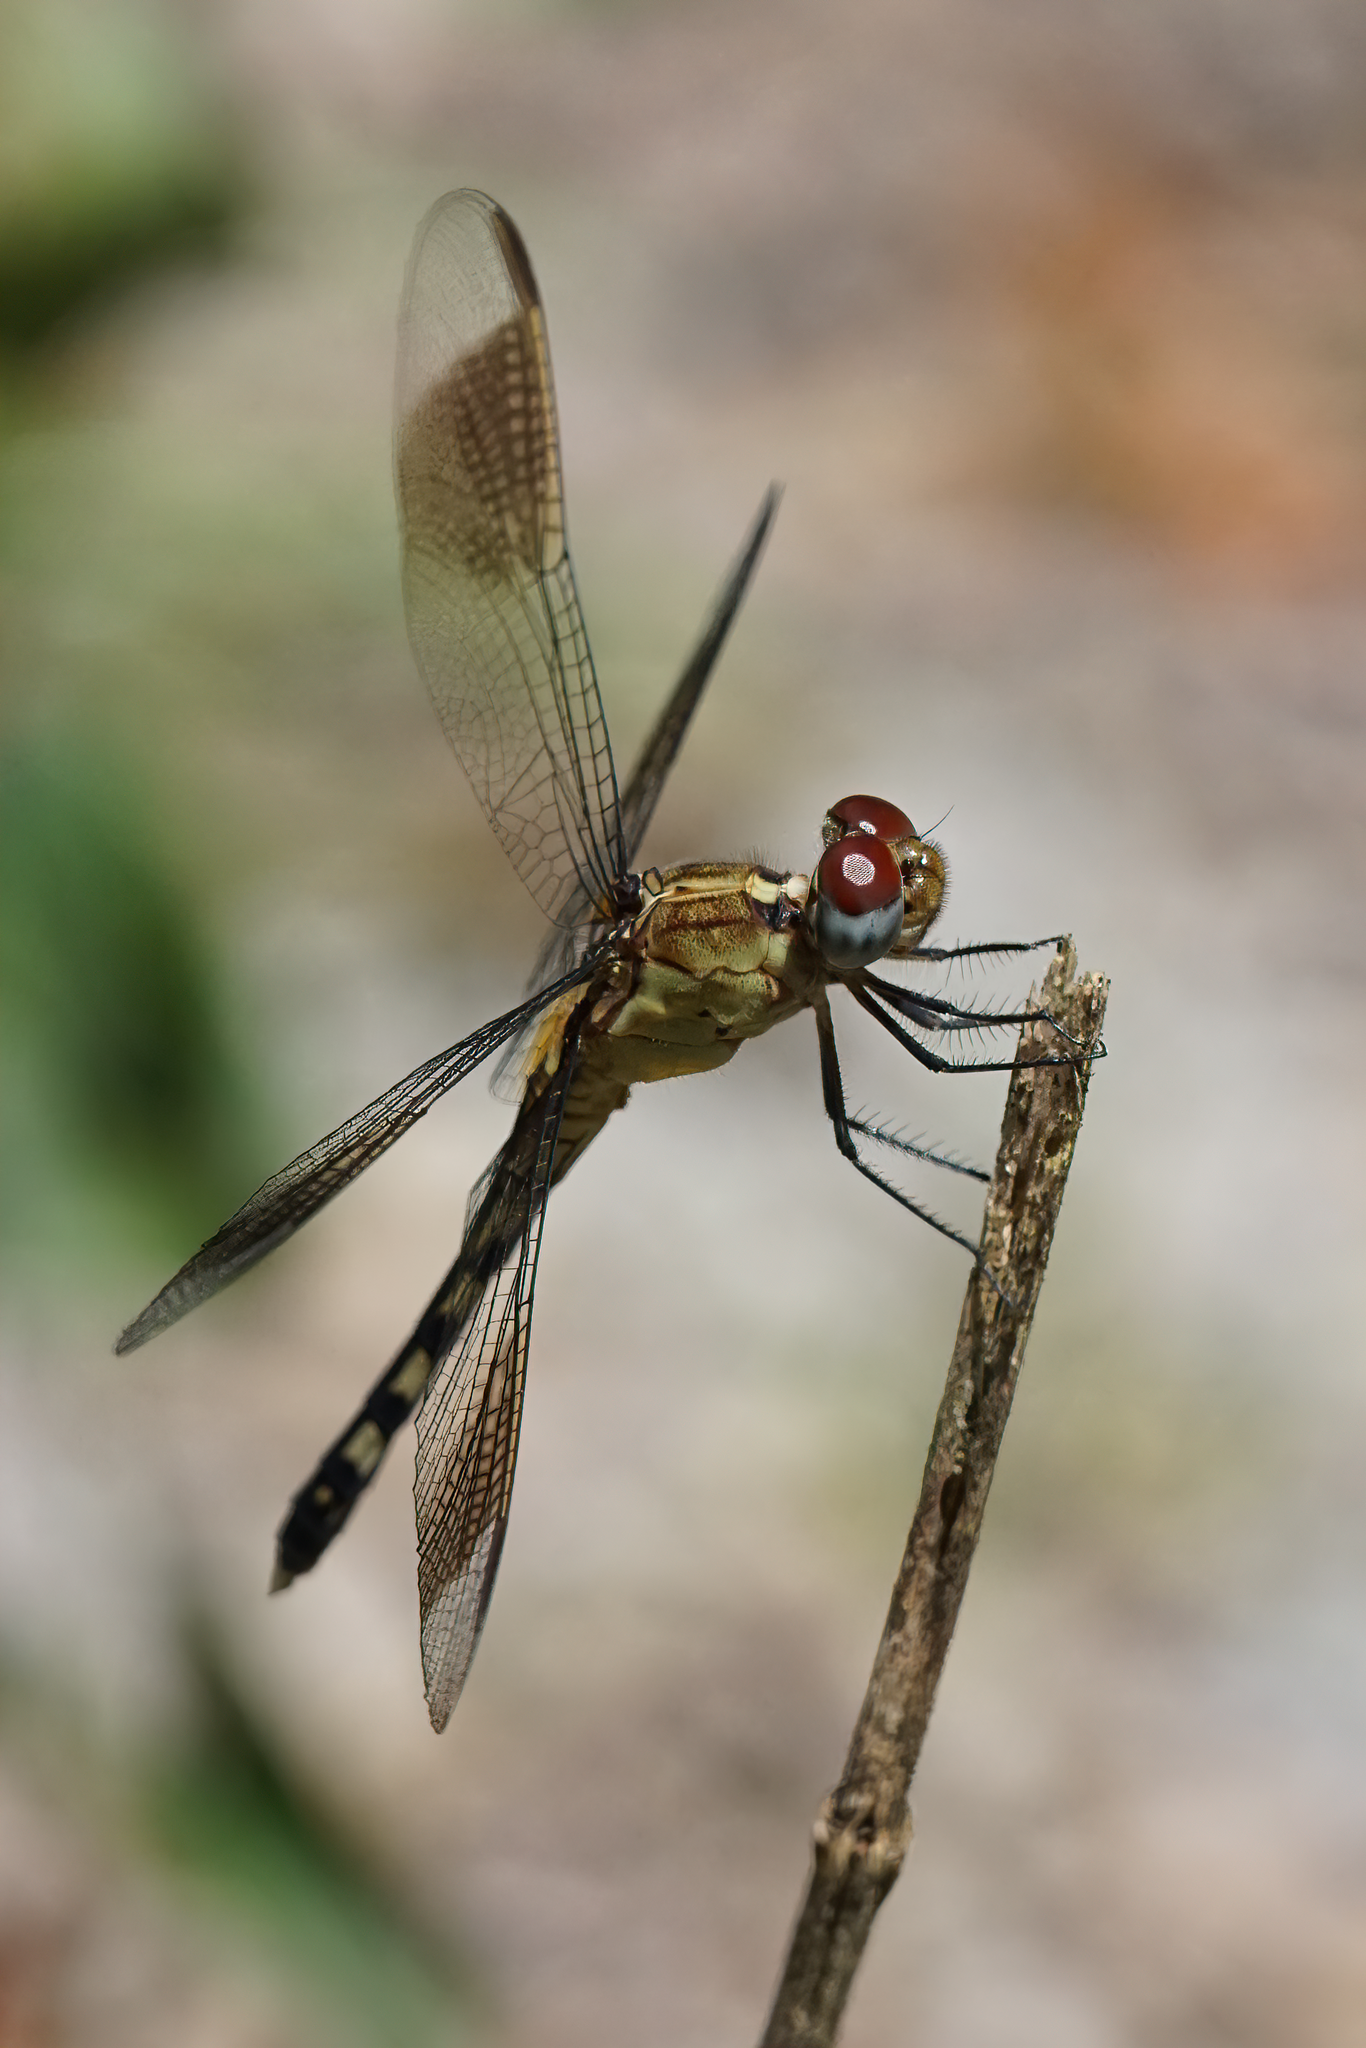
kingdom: Animalia
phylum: Arthropoda
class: Insecta
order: Odonata
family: Libellulidae
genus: Erythrodiplax
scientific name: Erythrodiplax umbrata
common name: Band-winged dragonlet
